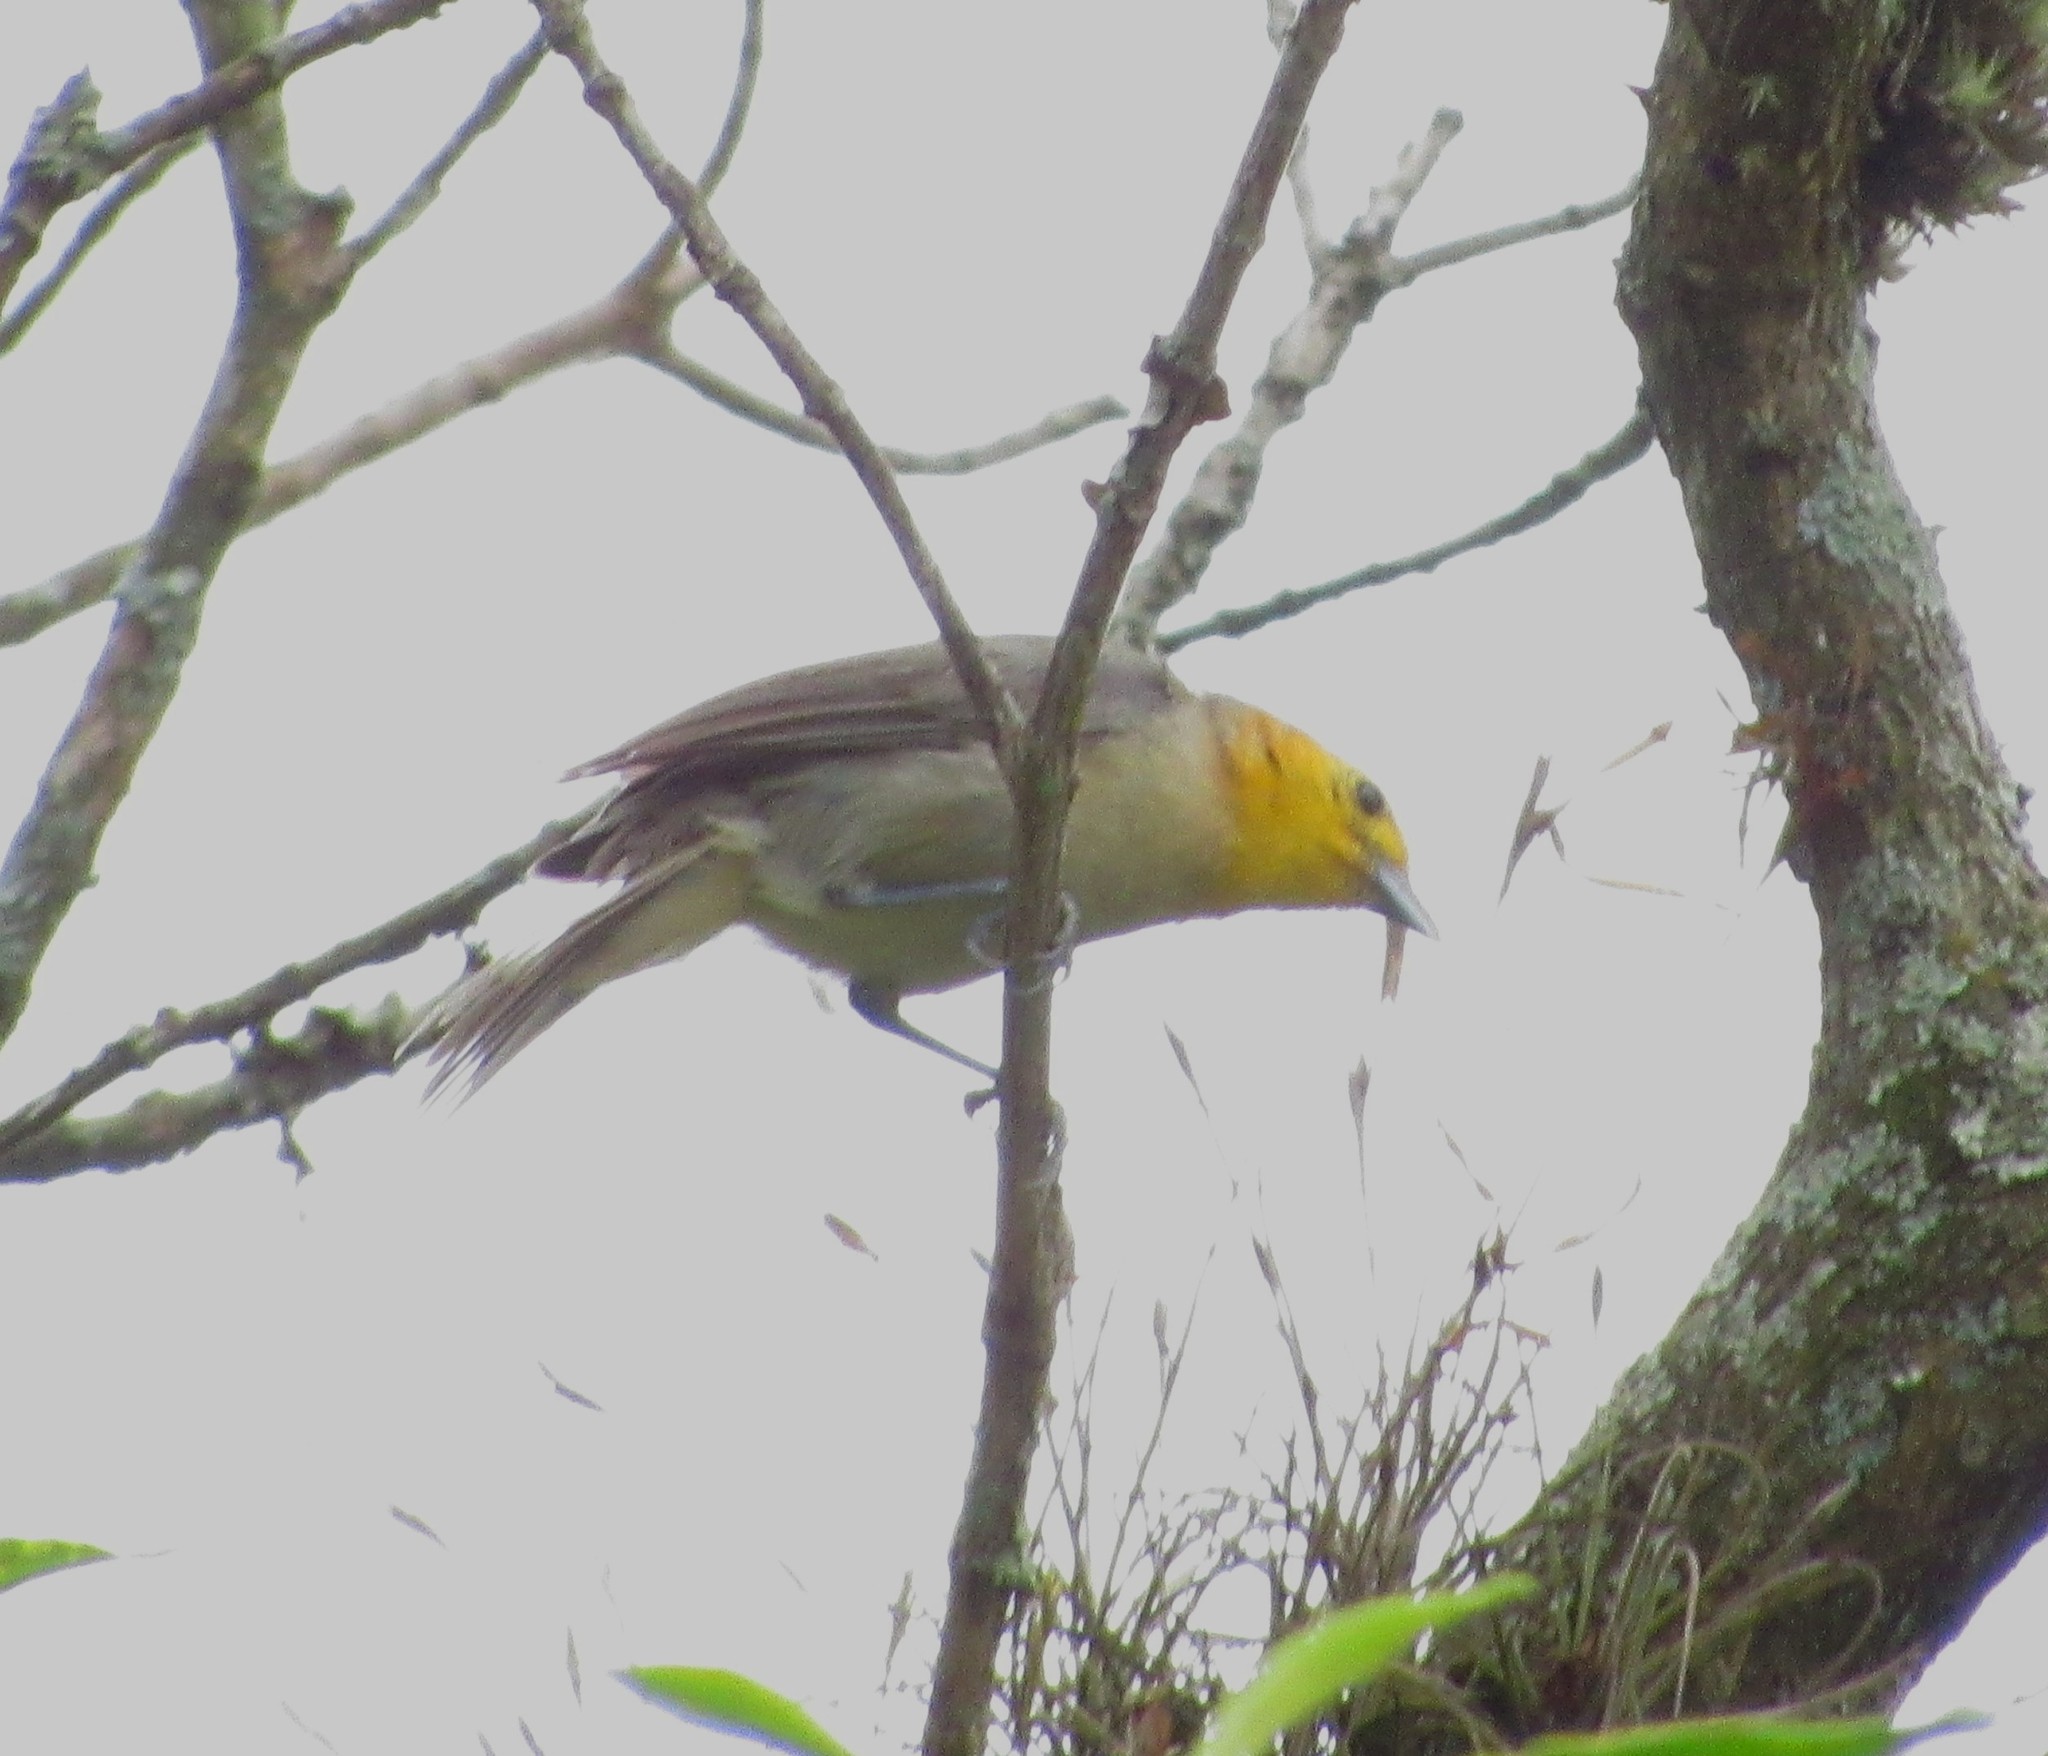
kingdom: Animalia
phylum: Chordata
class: Aves
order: Passeriformes
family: Thraupidae
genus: Thlypopsis
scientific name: Thlypopsis sordida
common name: Orange-headed tanager
